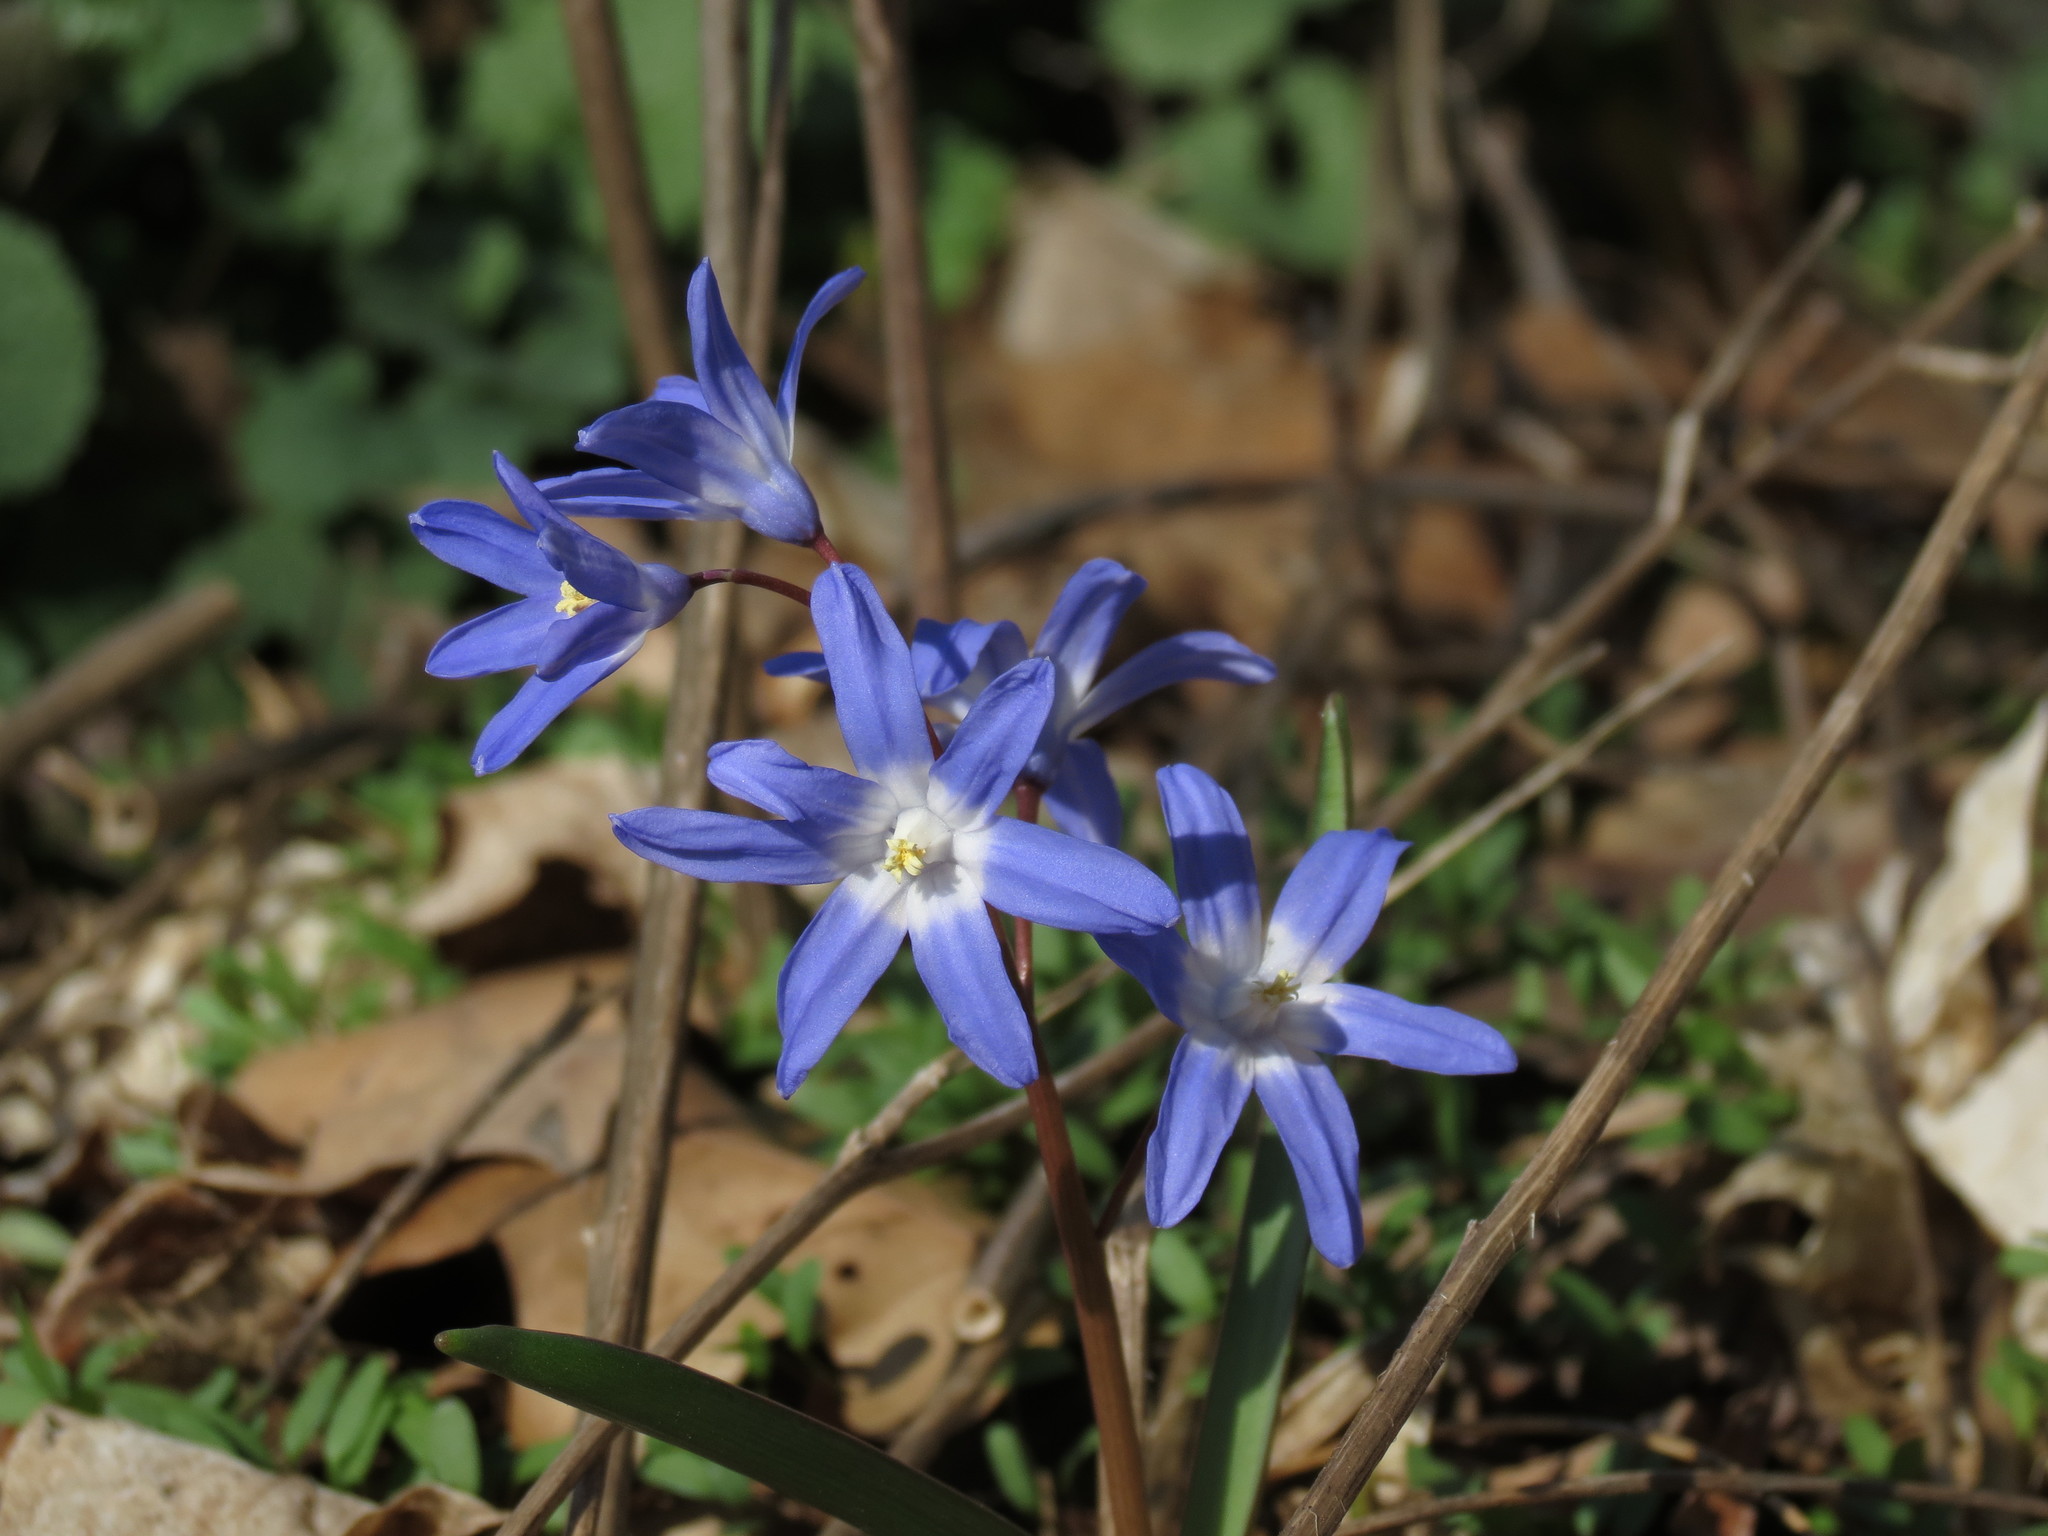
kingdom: Plantae
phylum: Tracheophyta
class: Liliopsida
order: Asparagales
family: Asparagaceae
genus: Scilla
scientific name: Scilla forbesii
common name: Glory-of-the-snow
